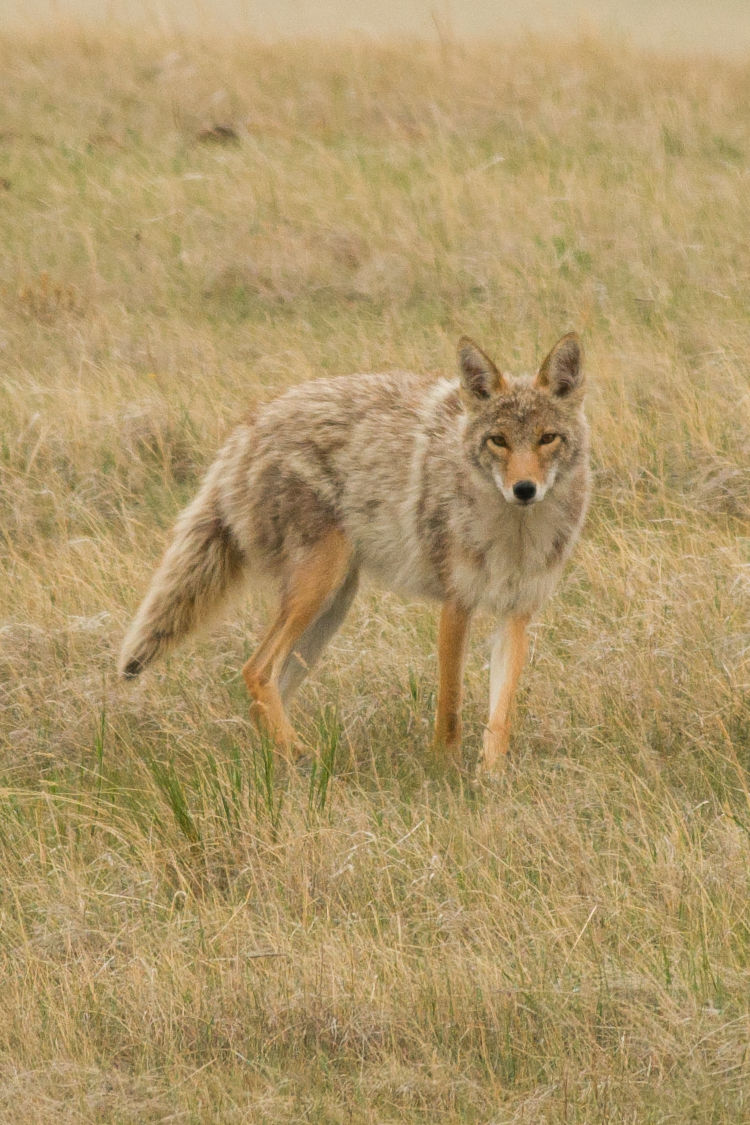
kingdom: Animalia
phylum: Chordata
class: Mammalia
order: Carnivora
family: Canidae
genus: Canis
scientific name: Canis latrans
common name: Coyote
